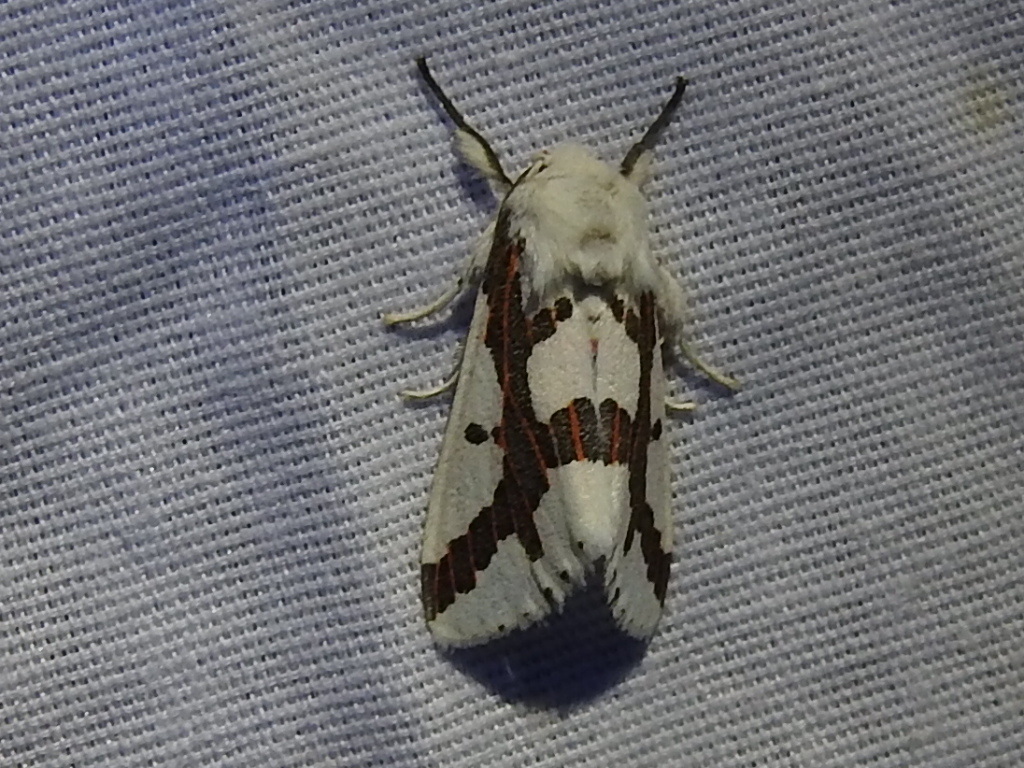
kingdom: Animalia
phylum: Arthropoda
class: Insecta
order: Lepidoptera
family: Erebidae
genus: Euerythra
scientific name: Euerythra phasma
